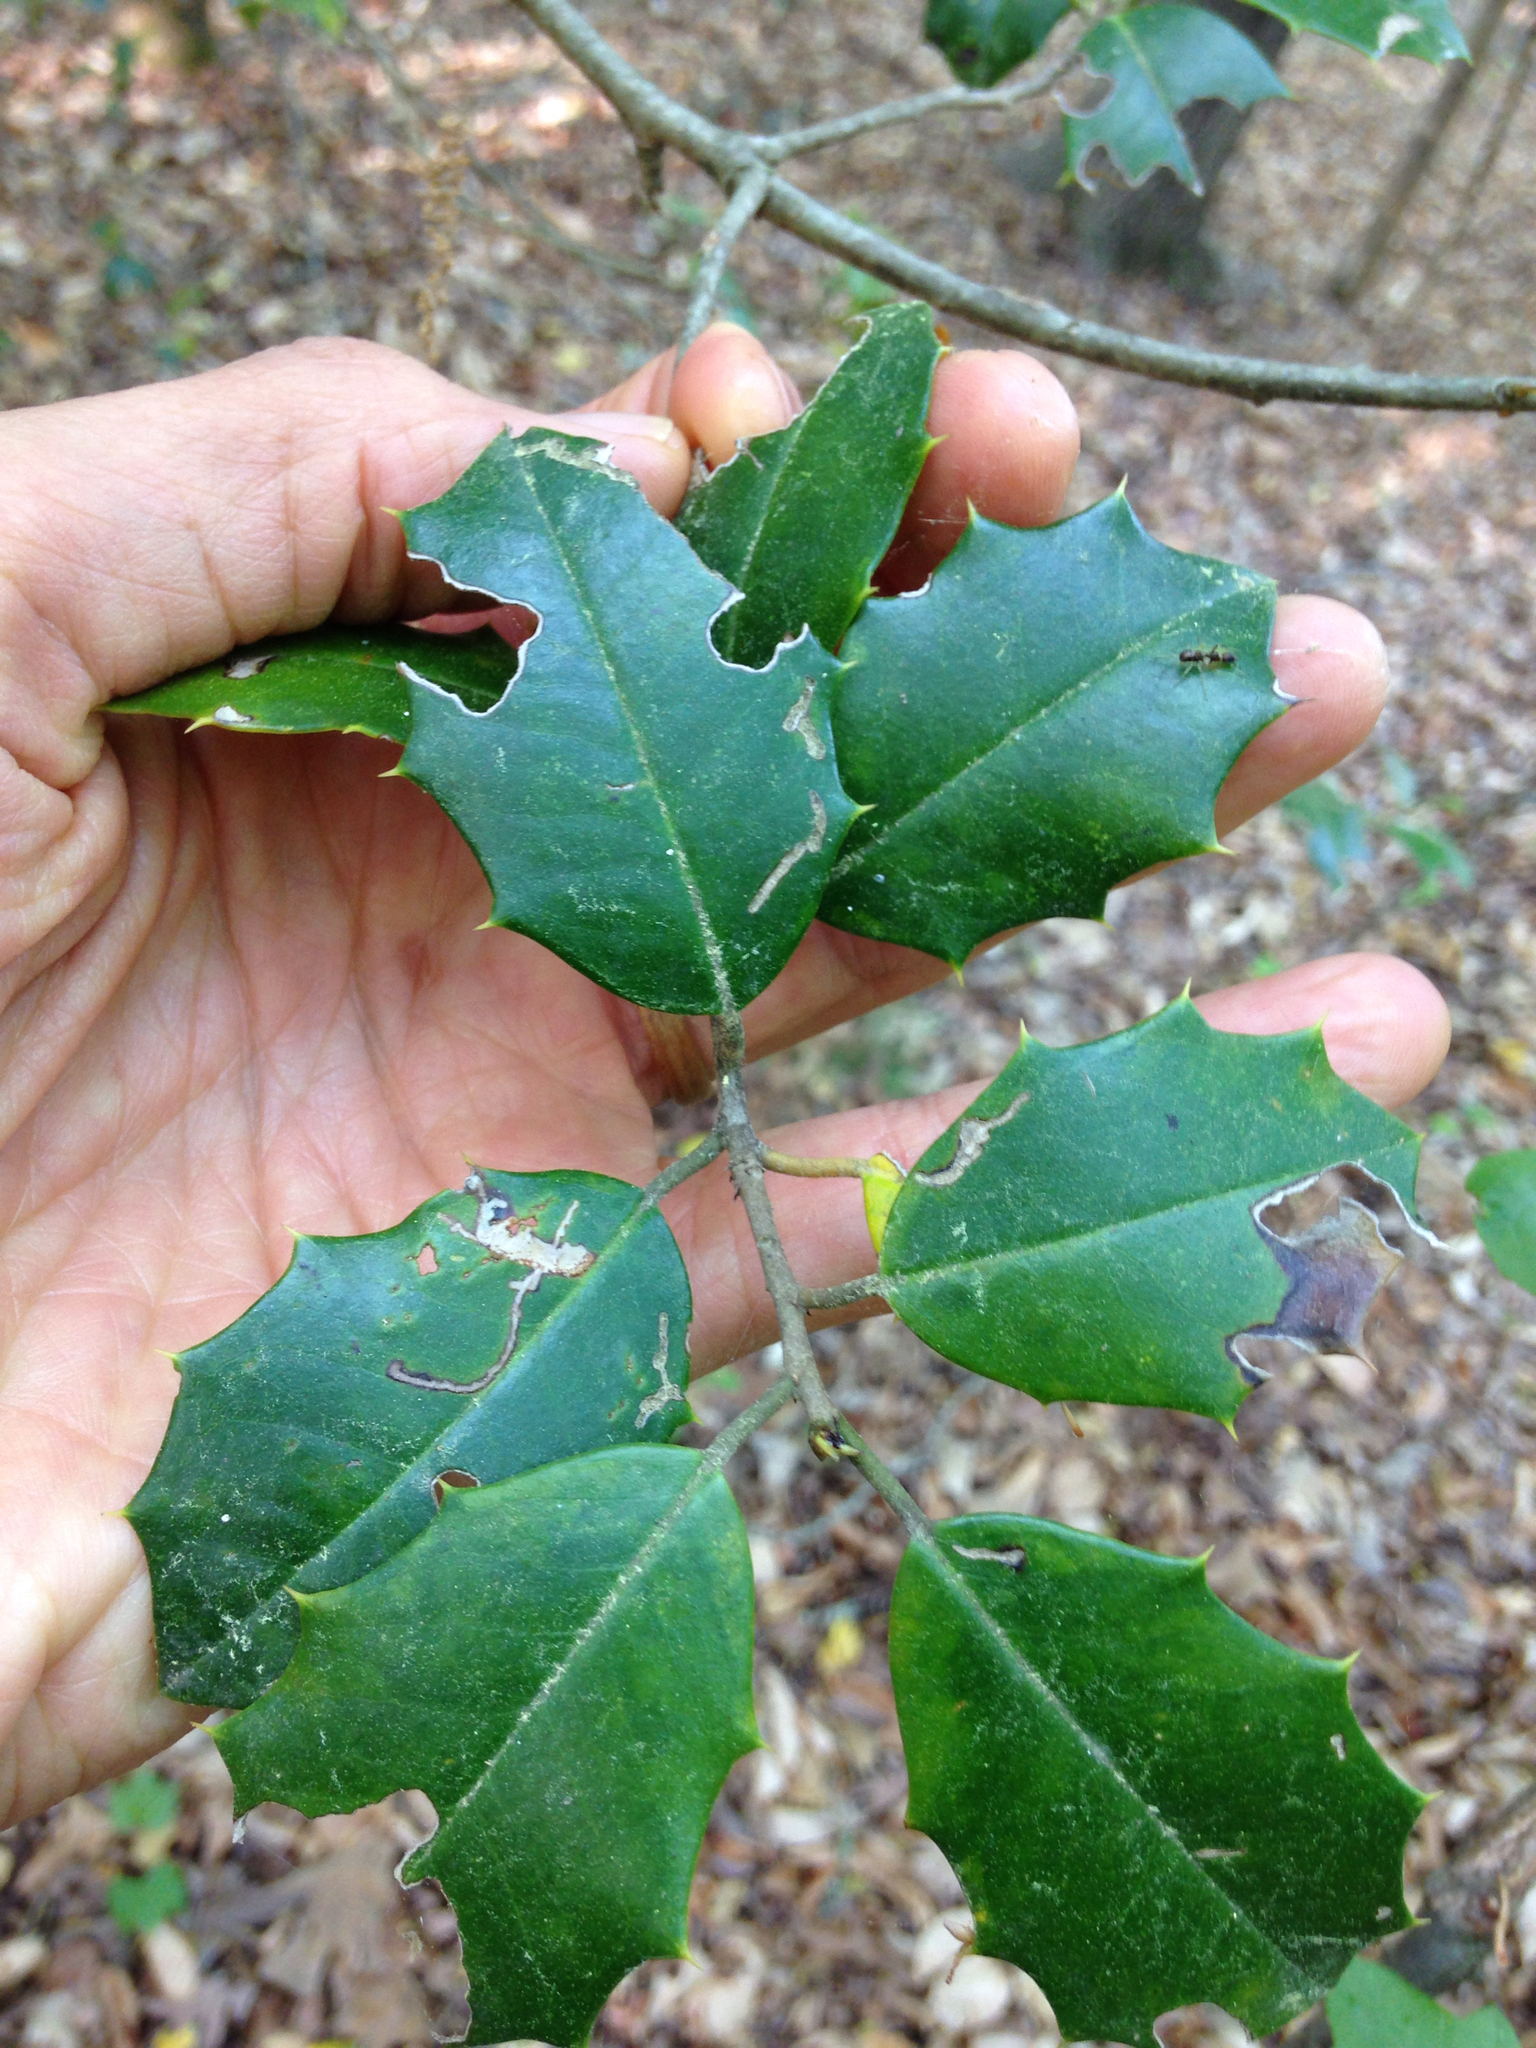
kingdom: Plantae
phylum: Tracheophyta
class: Magnoliopsida
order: Aquifoliales
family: Aquifoliaceae
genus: Ilex
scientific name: Ilex opaca
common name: American holly
